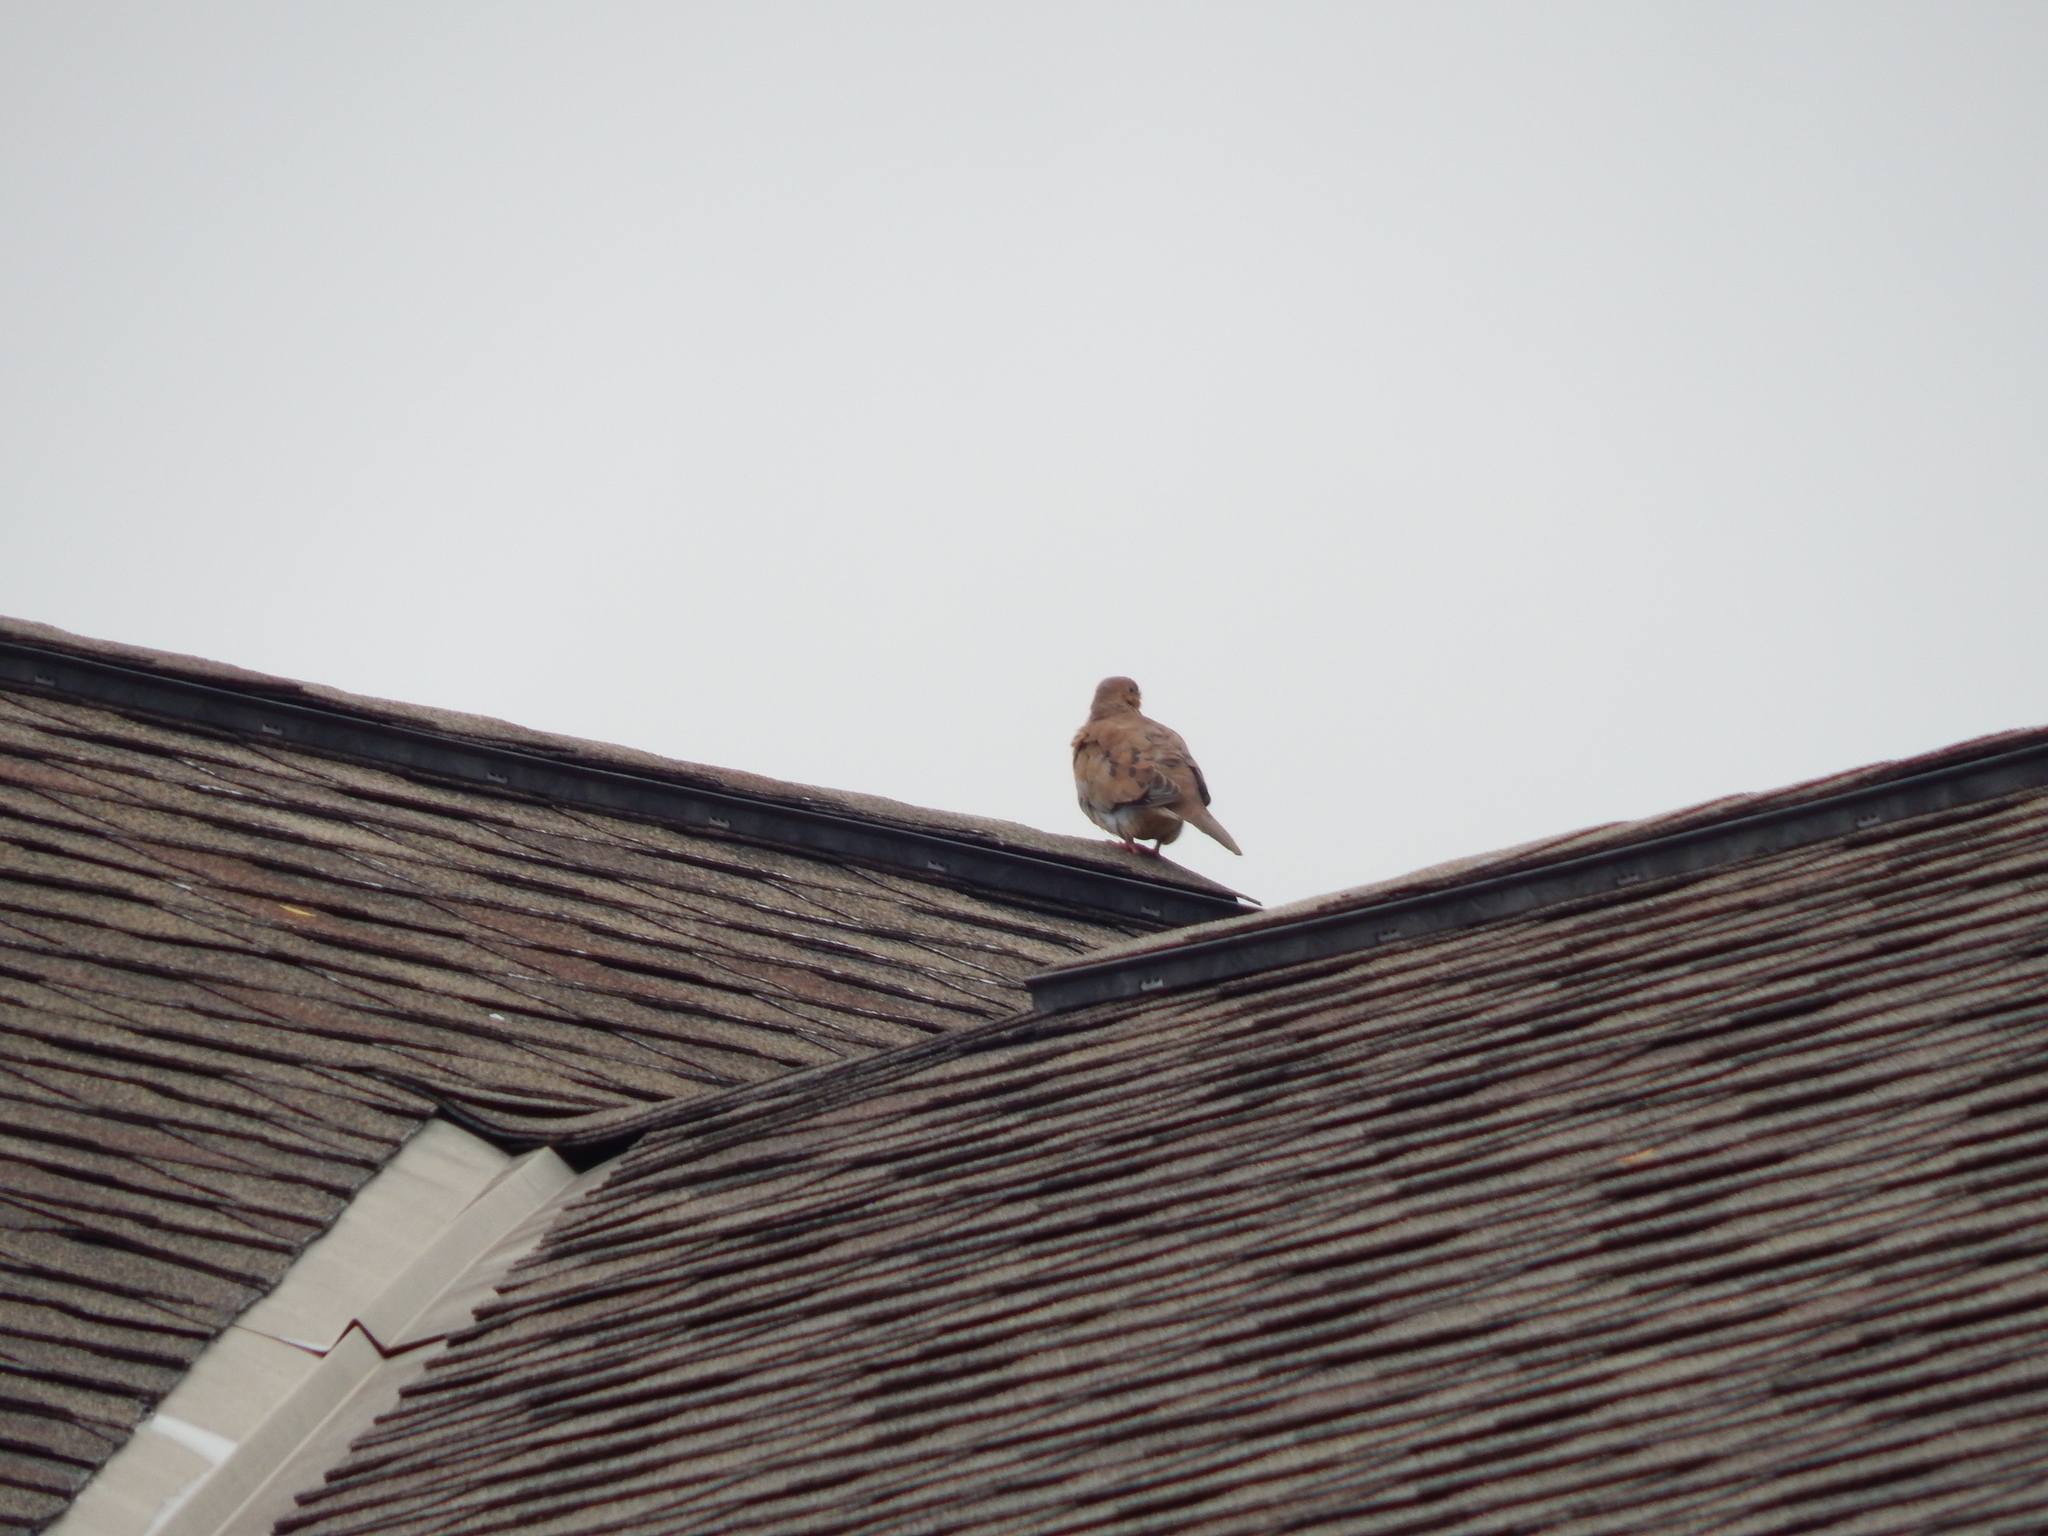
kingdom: Animalia
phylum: Chordata
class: Aves
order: Columbiformes
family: Columbidae
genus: Zenaida
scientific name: Zenaida macroura
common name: Mourning dove
